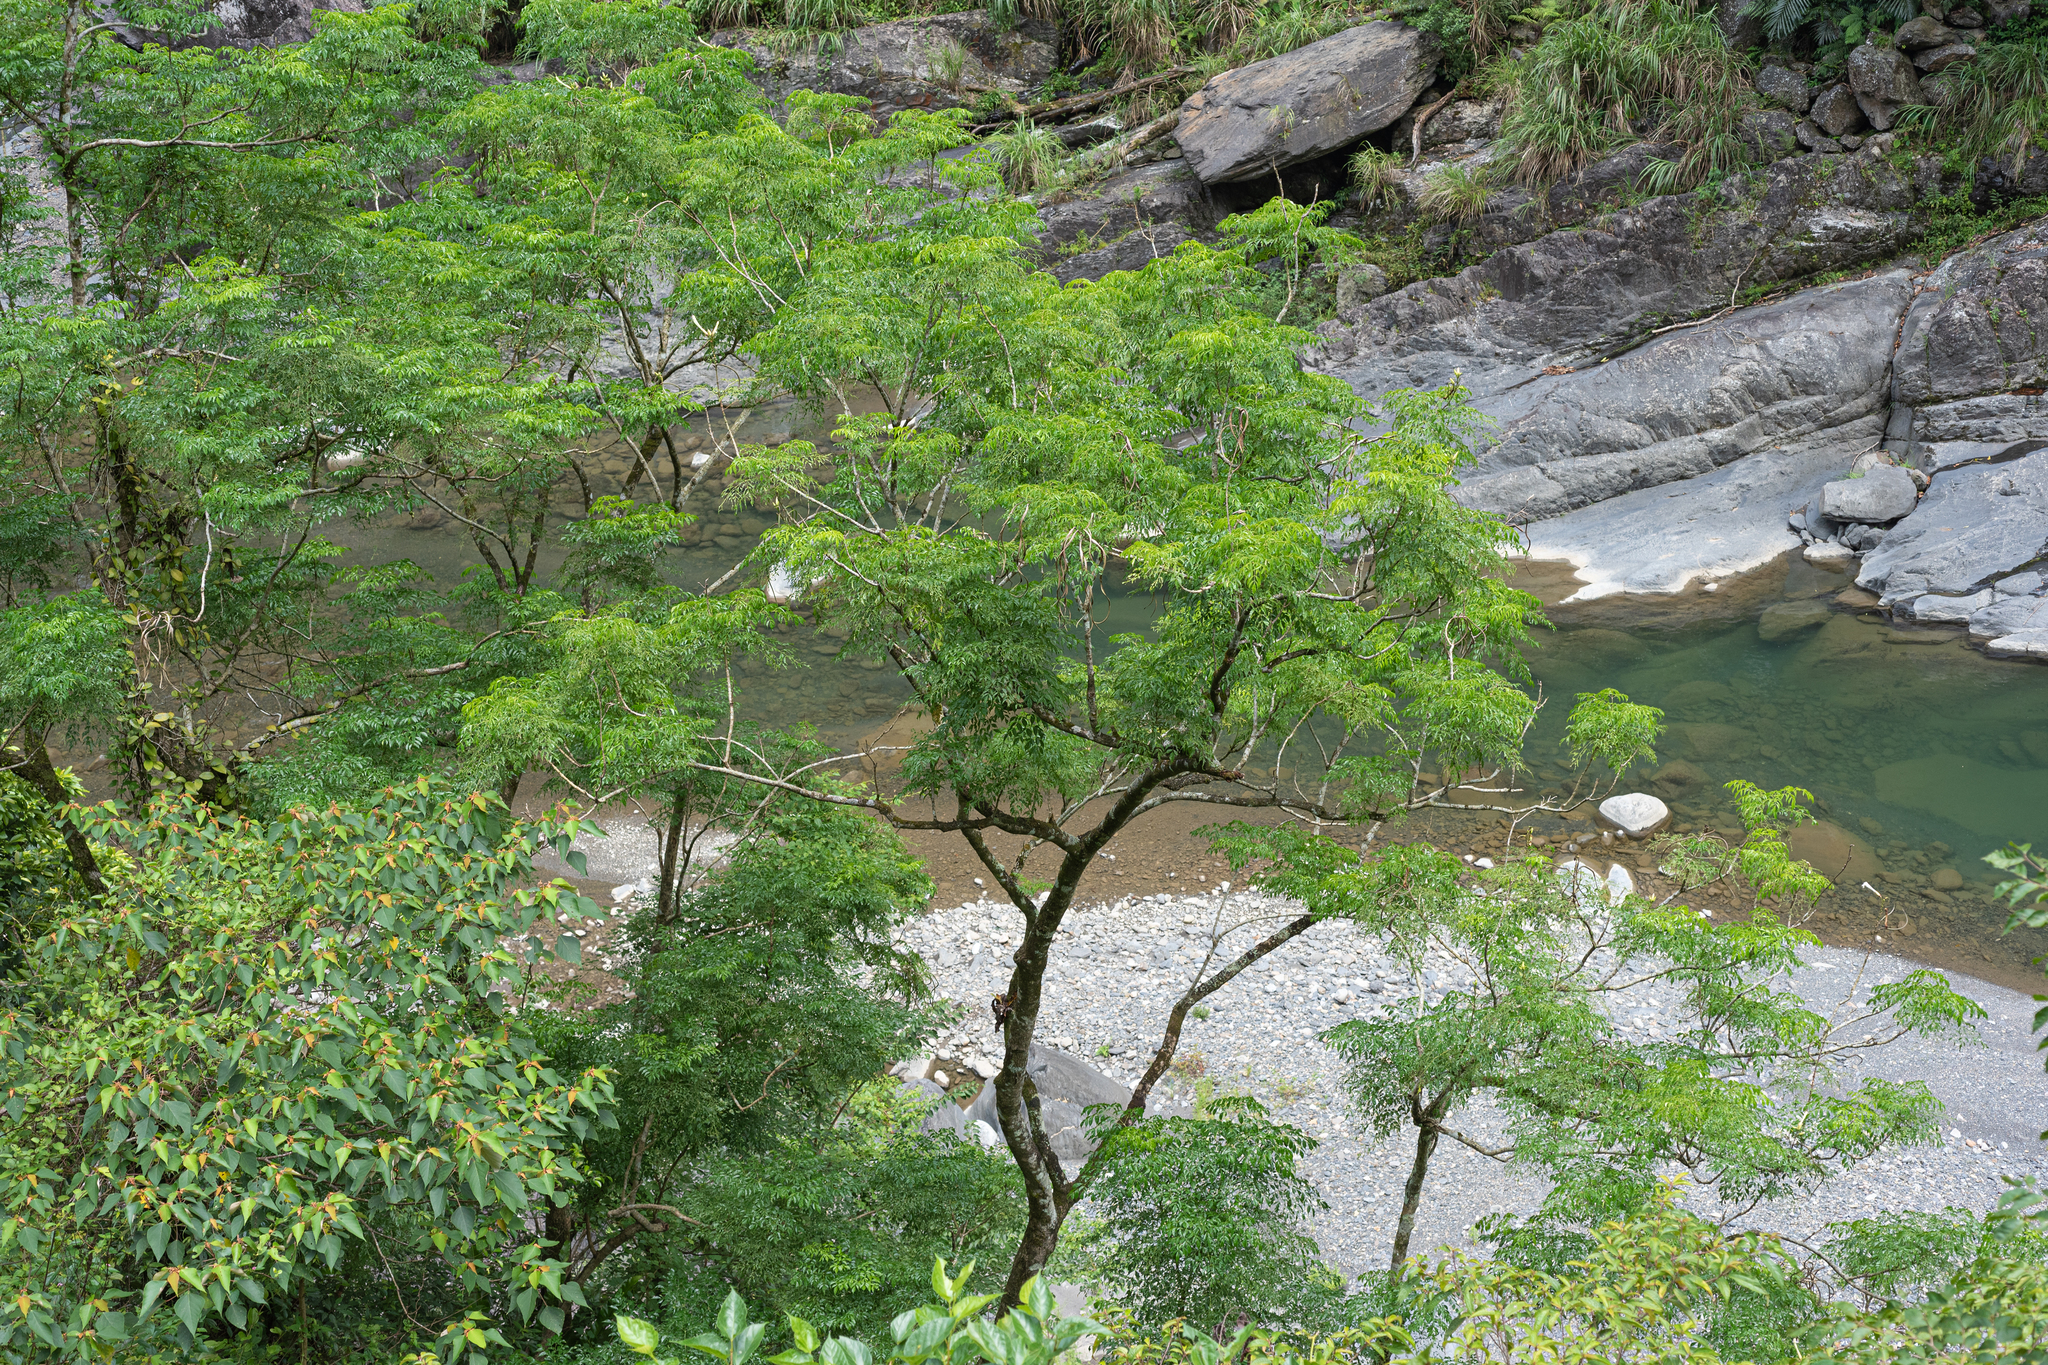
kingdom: Plantae
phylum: Tracheophyta
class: Magnoliopsida
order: Lamiales
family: Bignoniaceae
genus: Radermachera
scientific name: Radermachera sinica
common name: China doll plant
